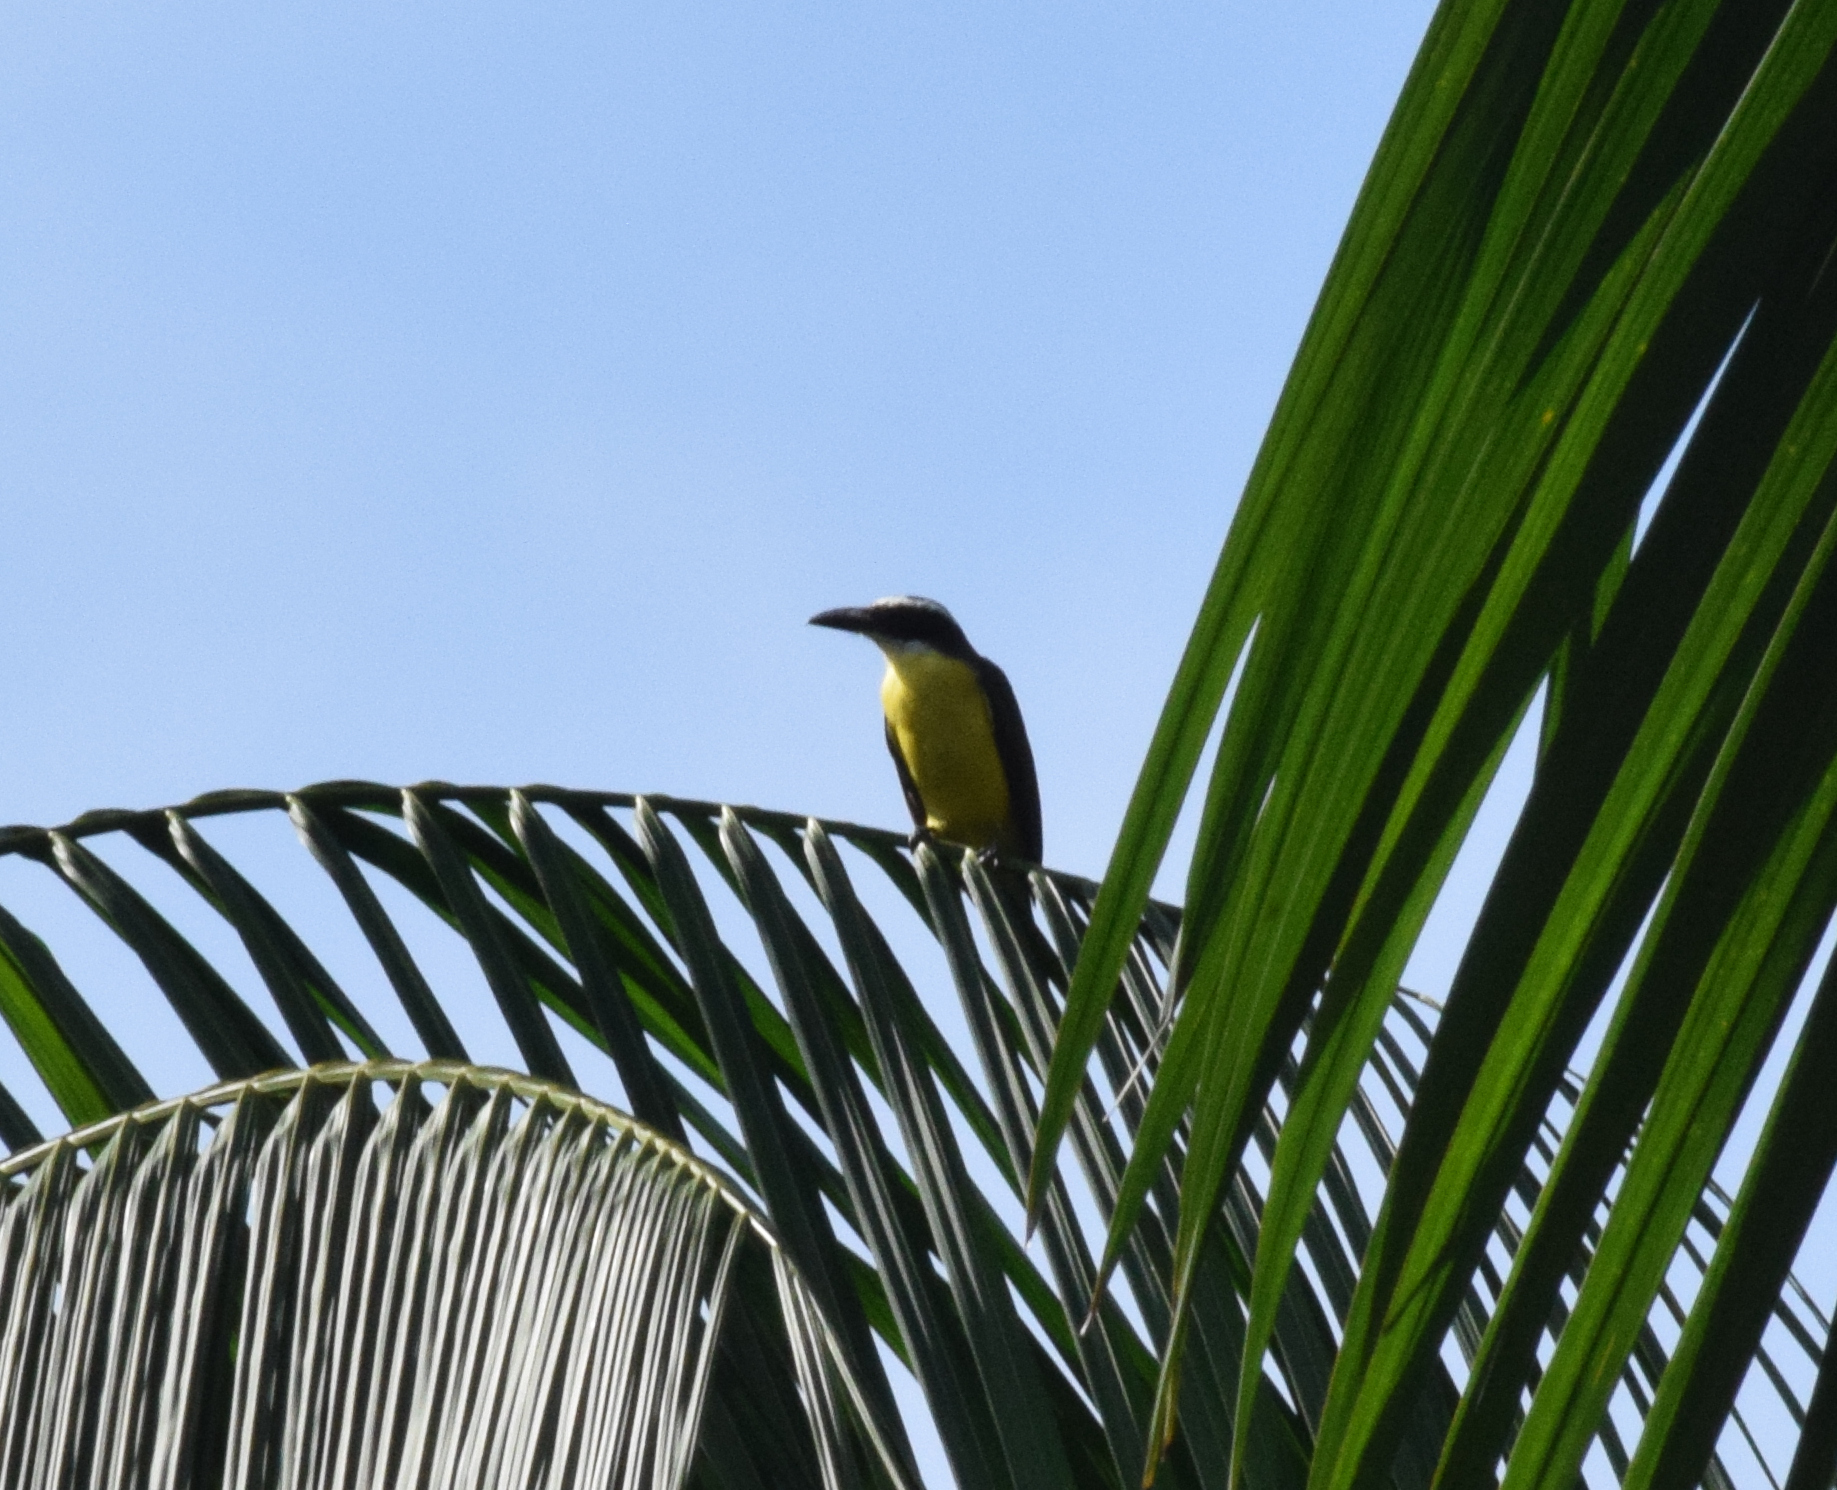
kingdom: Animalia
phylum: Chordata
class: Aves
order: Passeriformes
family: Tyrannidae
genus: Megarynchus
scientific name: Megarynchus pitangua
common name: Boat-billed flycatcher
